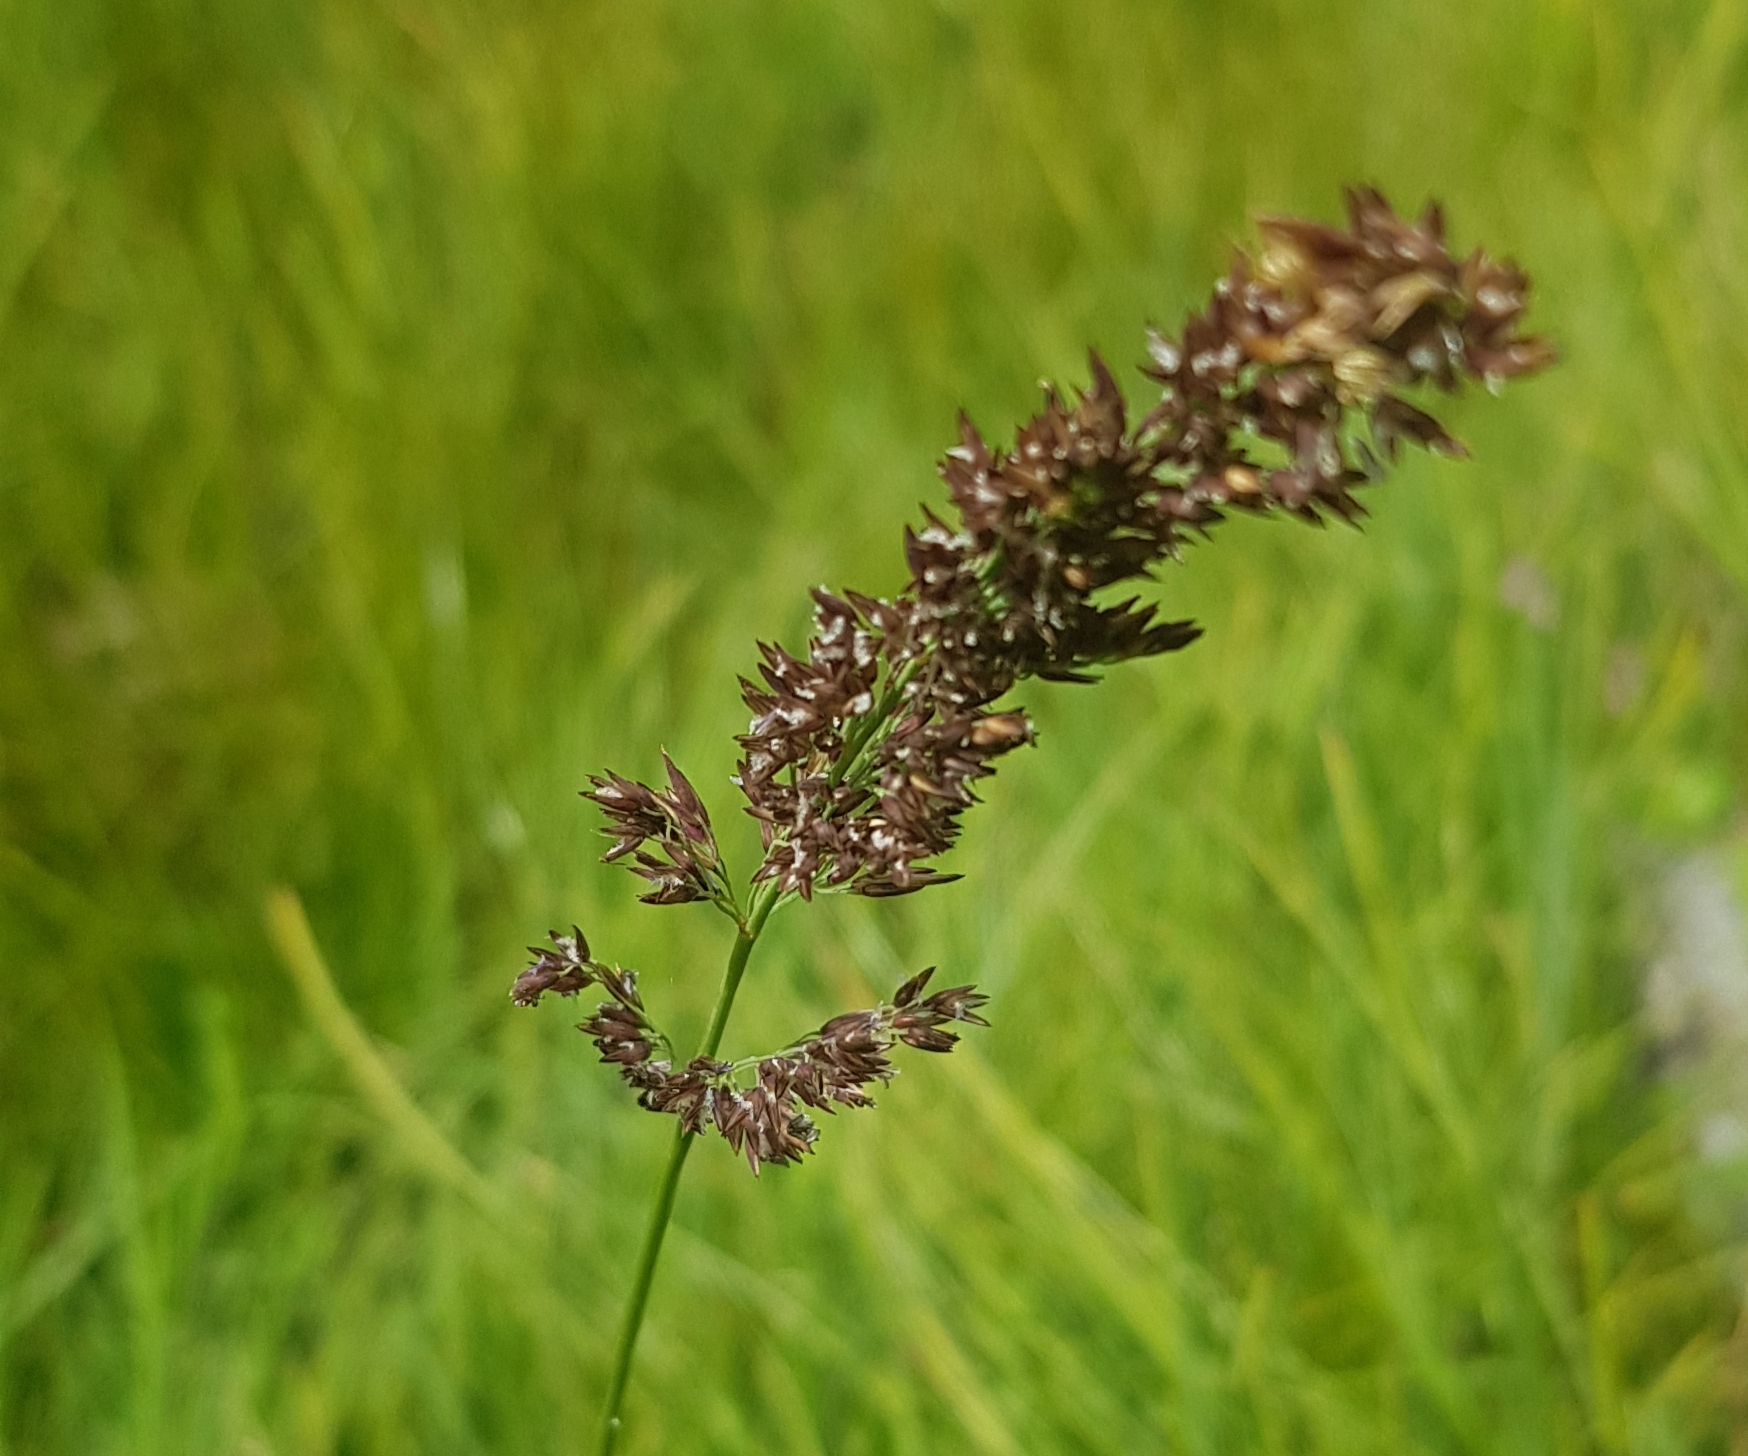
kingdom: Plantae
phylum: Tracheophyta
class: Liliopsida
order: Poales
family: Poaceae
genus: Poa
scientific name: Poa pratensis
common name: Kentucky bluegrass
